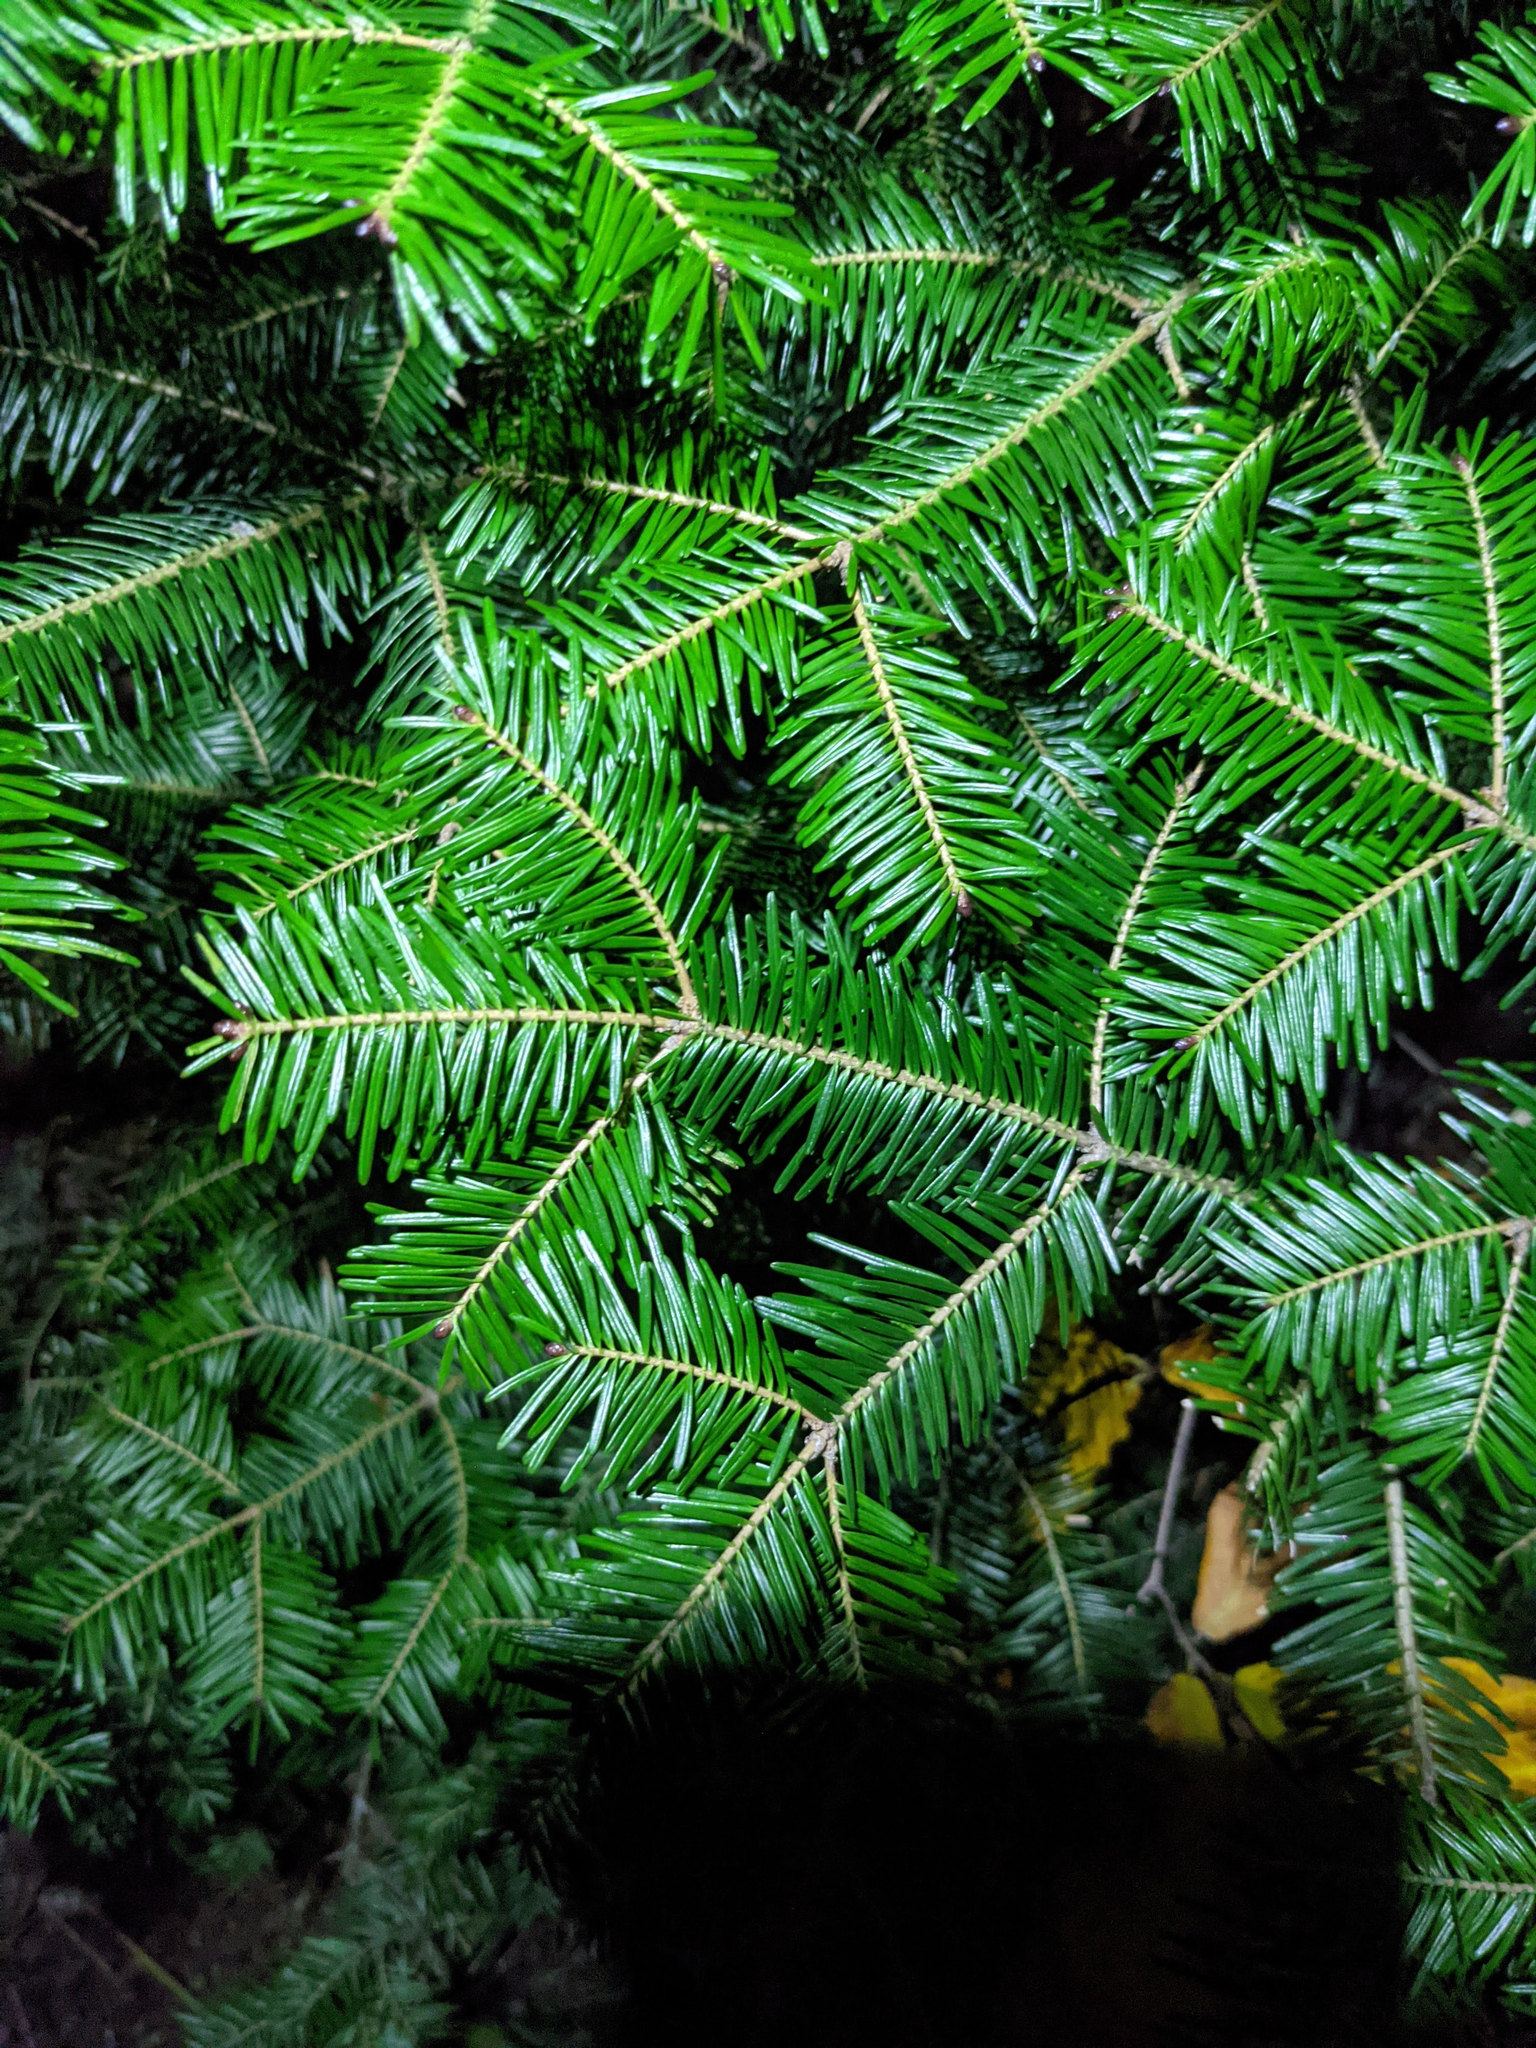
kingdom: Plantae
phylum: Tracheophyta
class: Pinopsida
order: Pinales
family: Pinaceae
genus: Abies
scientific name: Abies balsamea
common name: Balsam fir
